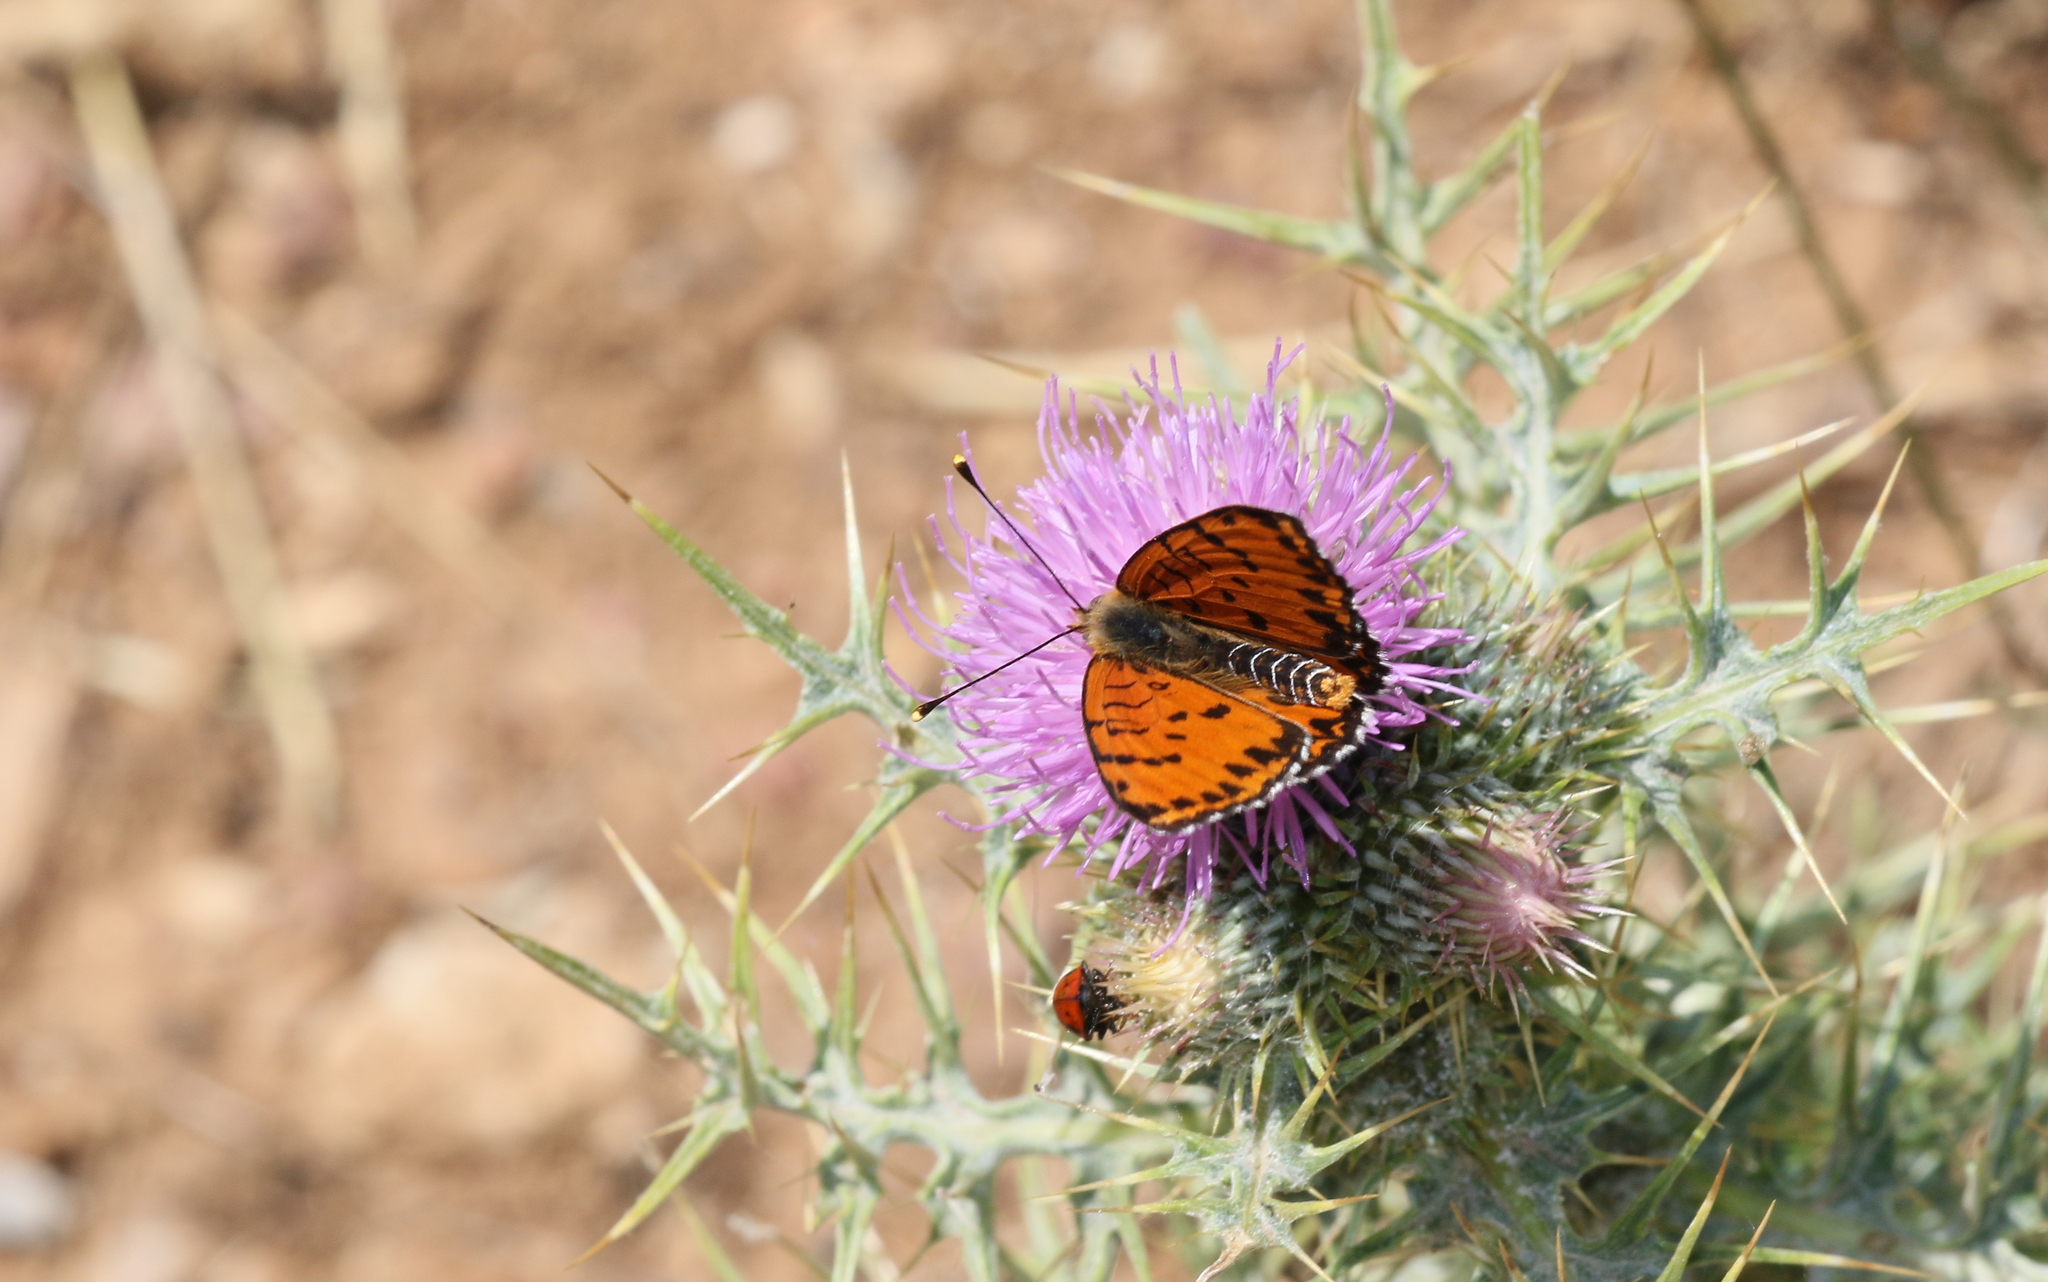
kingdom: Animalia
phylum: Arthropoda
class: Insecta
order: Lepidoptera
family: Nymphalidae
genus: Melitaea
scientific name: Melitaea didyma
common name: Spotted fritillary
